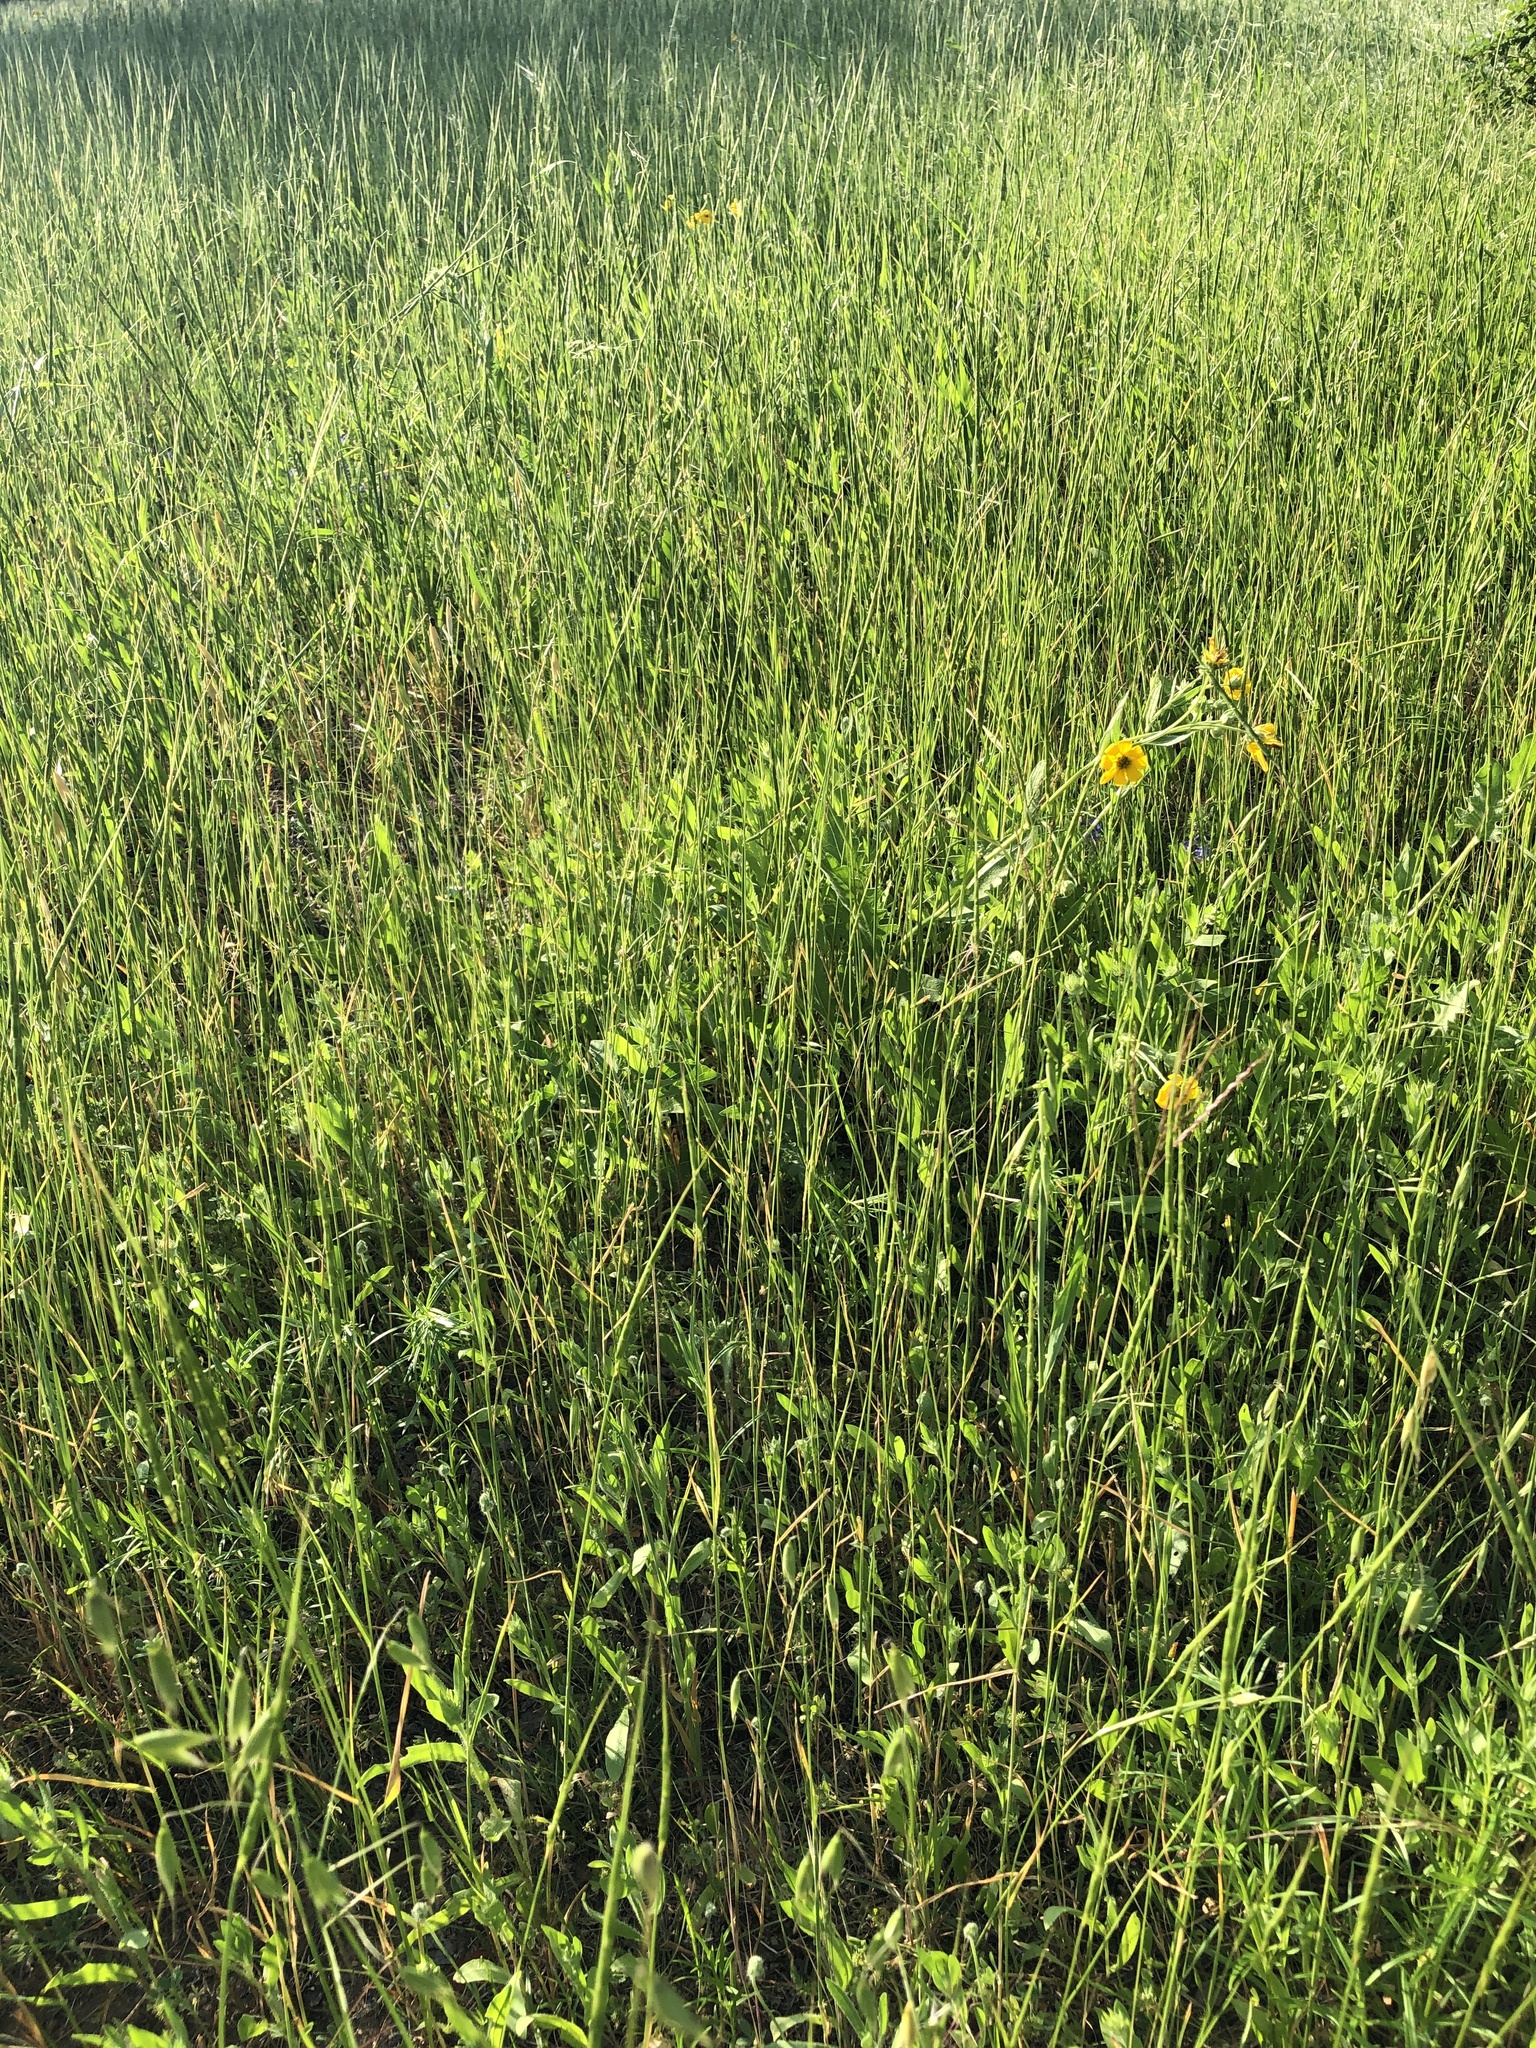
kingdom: Plantae
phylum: Tracheophyta
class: Liliopsida
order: Poales
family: Poaceae
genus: Aegilops
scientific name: Aegilops cylindrica
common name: Jointed goatgrass
